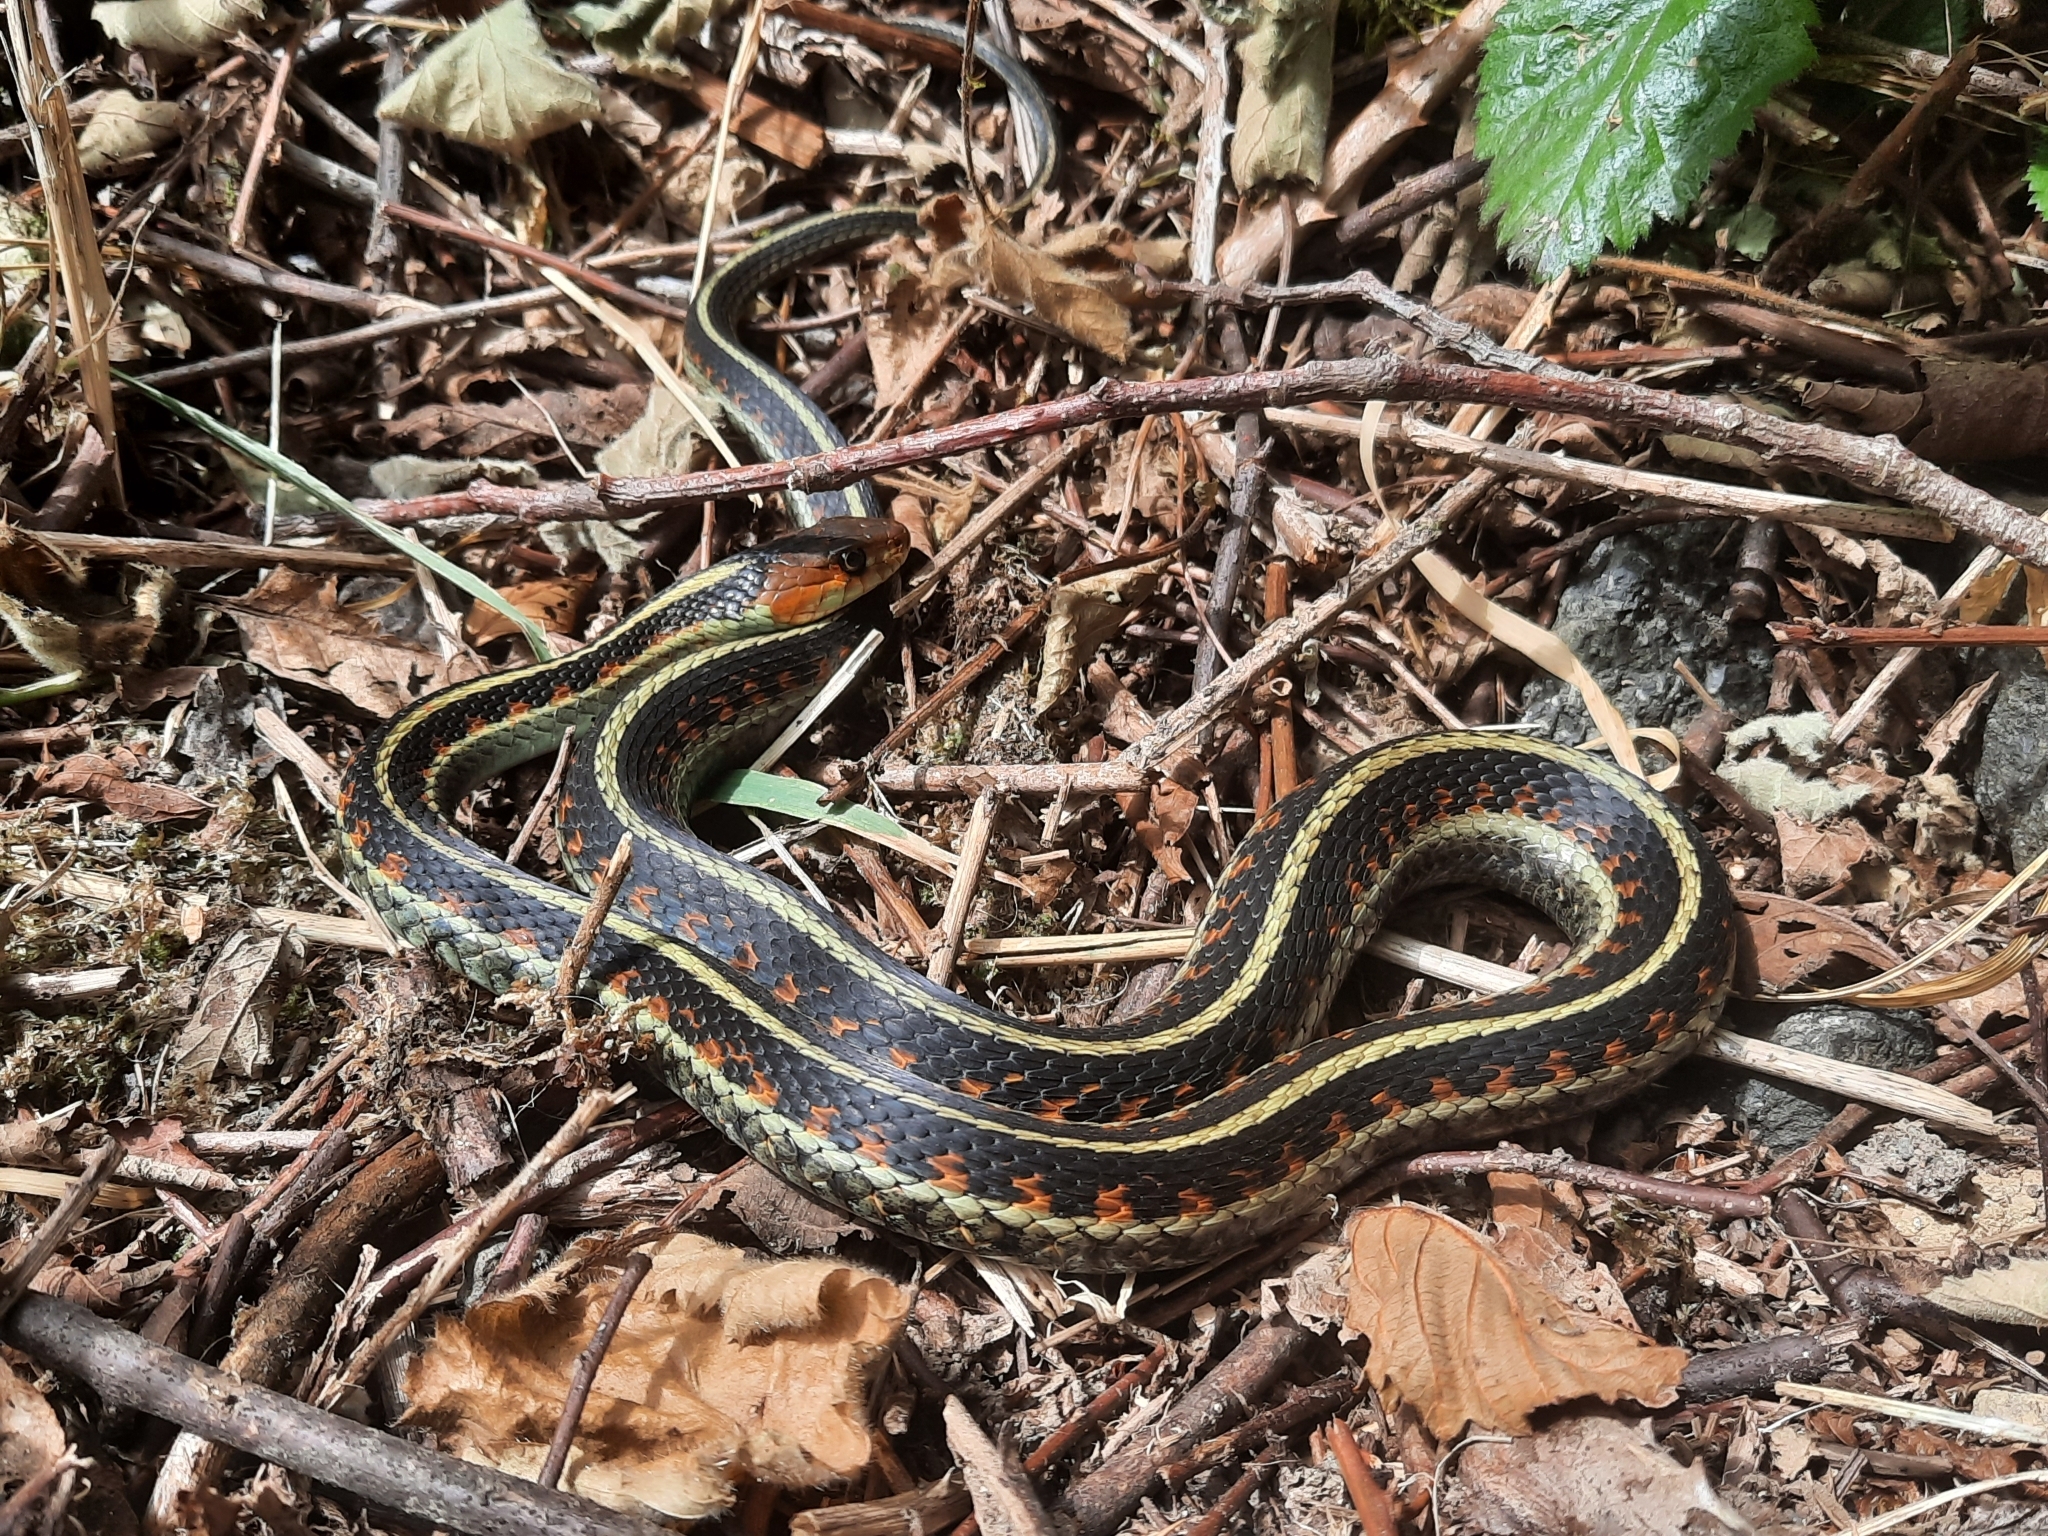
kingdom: Animalia
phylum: Chordata
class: Squamata
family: Colubridae
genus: Thamnophis
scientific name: Thamnophis sirtalis
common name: Common garter snake
